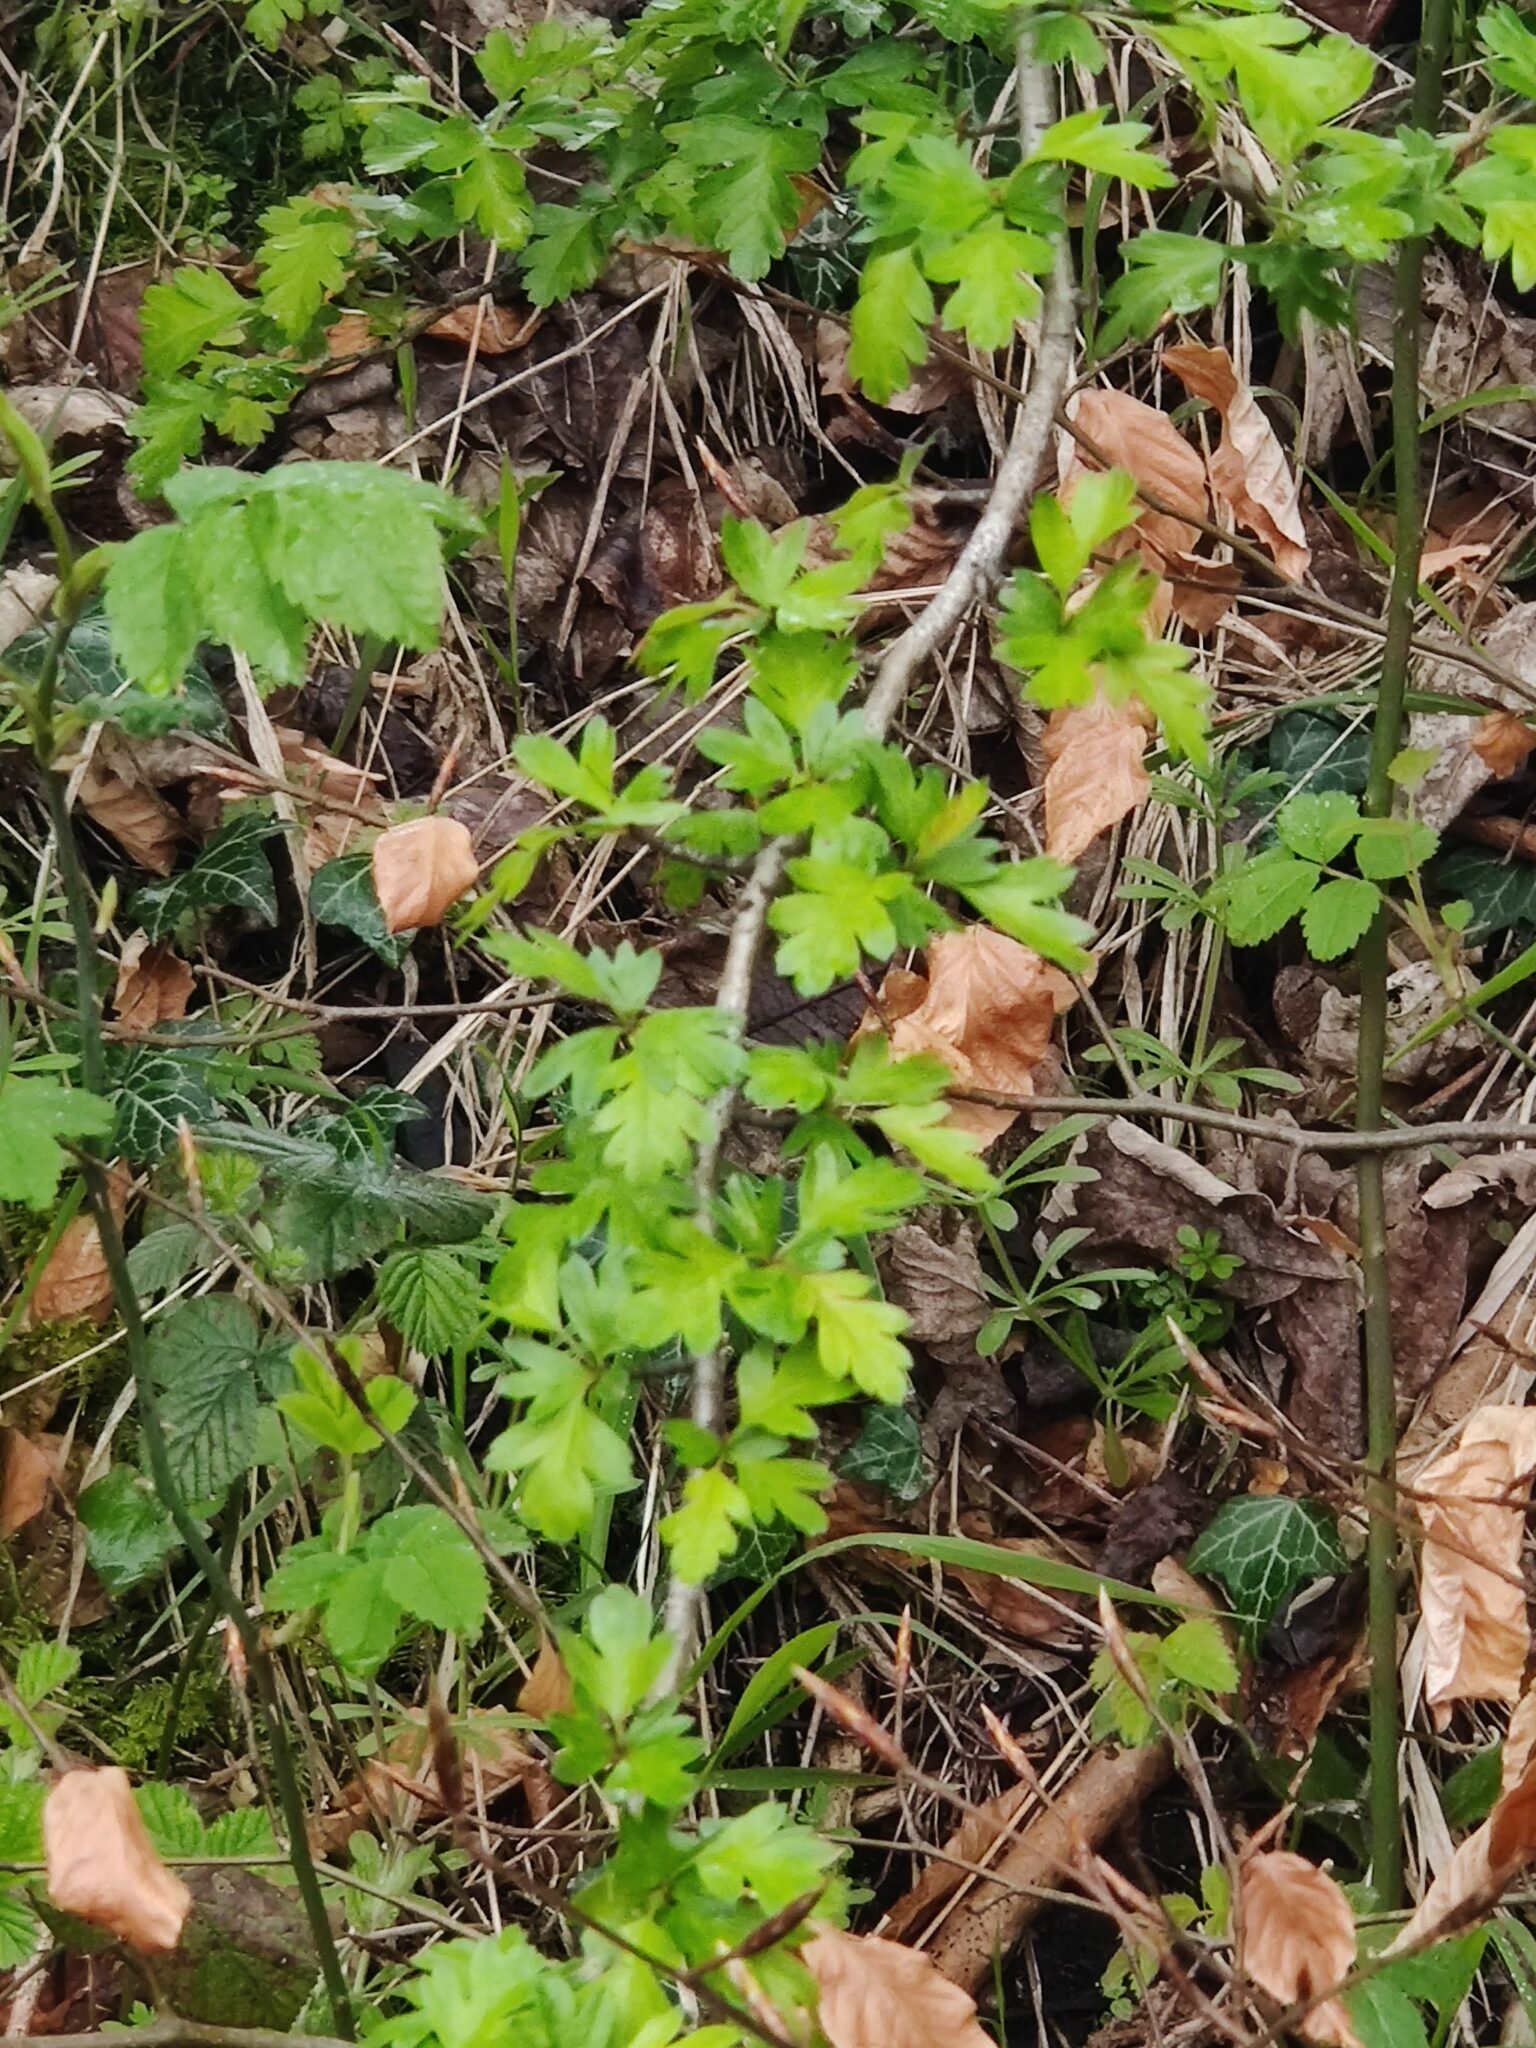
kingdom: Plantae
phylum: Tracheophyta
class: Magnoliopsida
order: Rosales
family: Rosaceae
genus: Crataegus
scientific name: Crataegus monogyna
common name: Hawthorn
